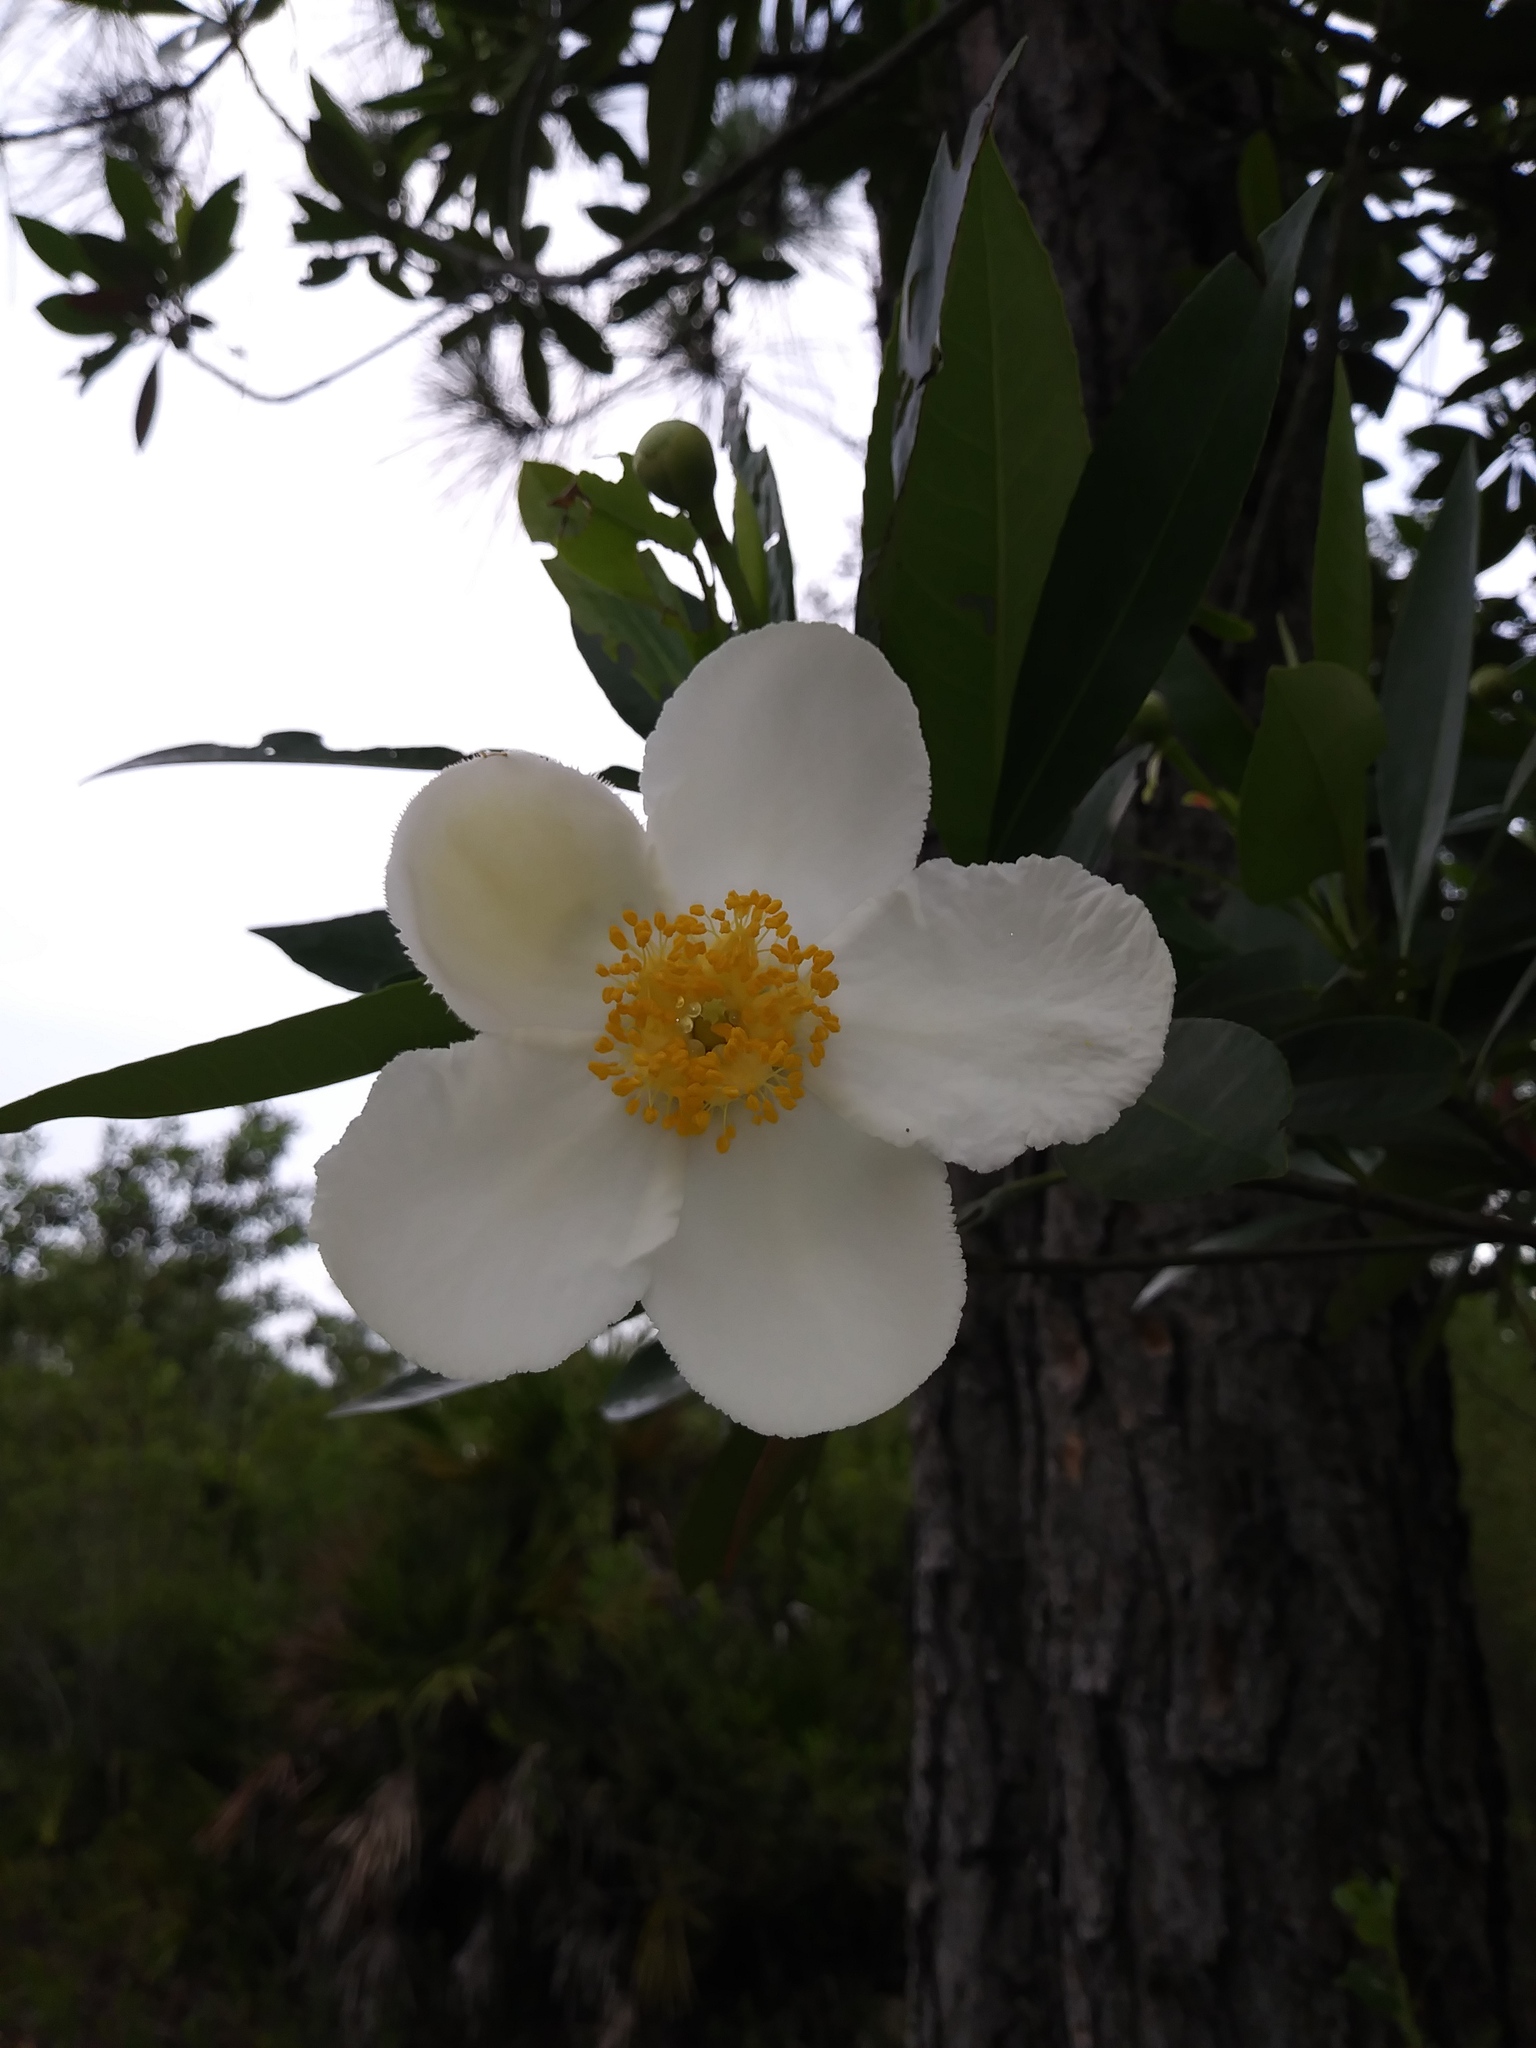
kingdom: Plantae
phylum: Tracheophyta
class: Magnoliopsida
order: Ericales
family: Theaceae
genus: Gordonia
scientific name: Gordonia lasianthus
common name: Loblolly bay
